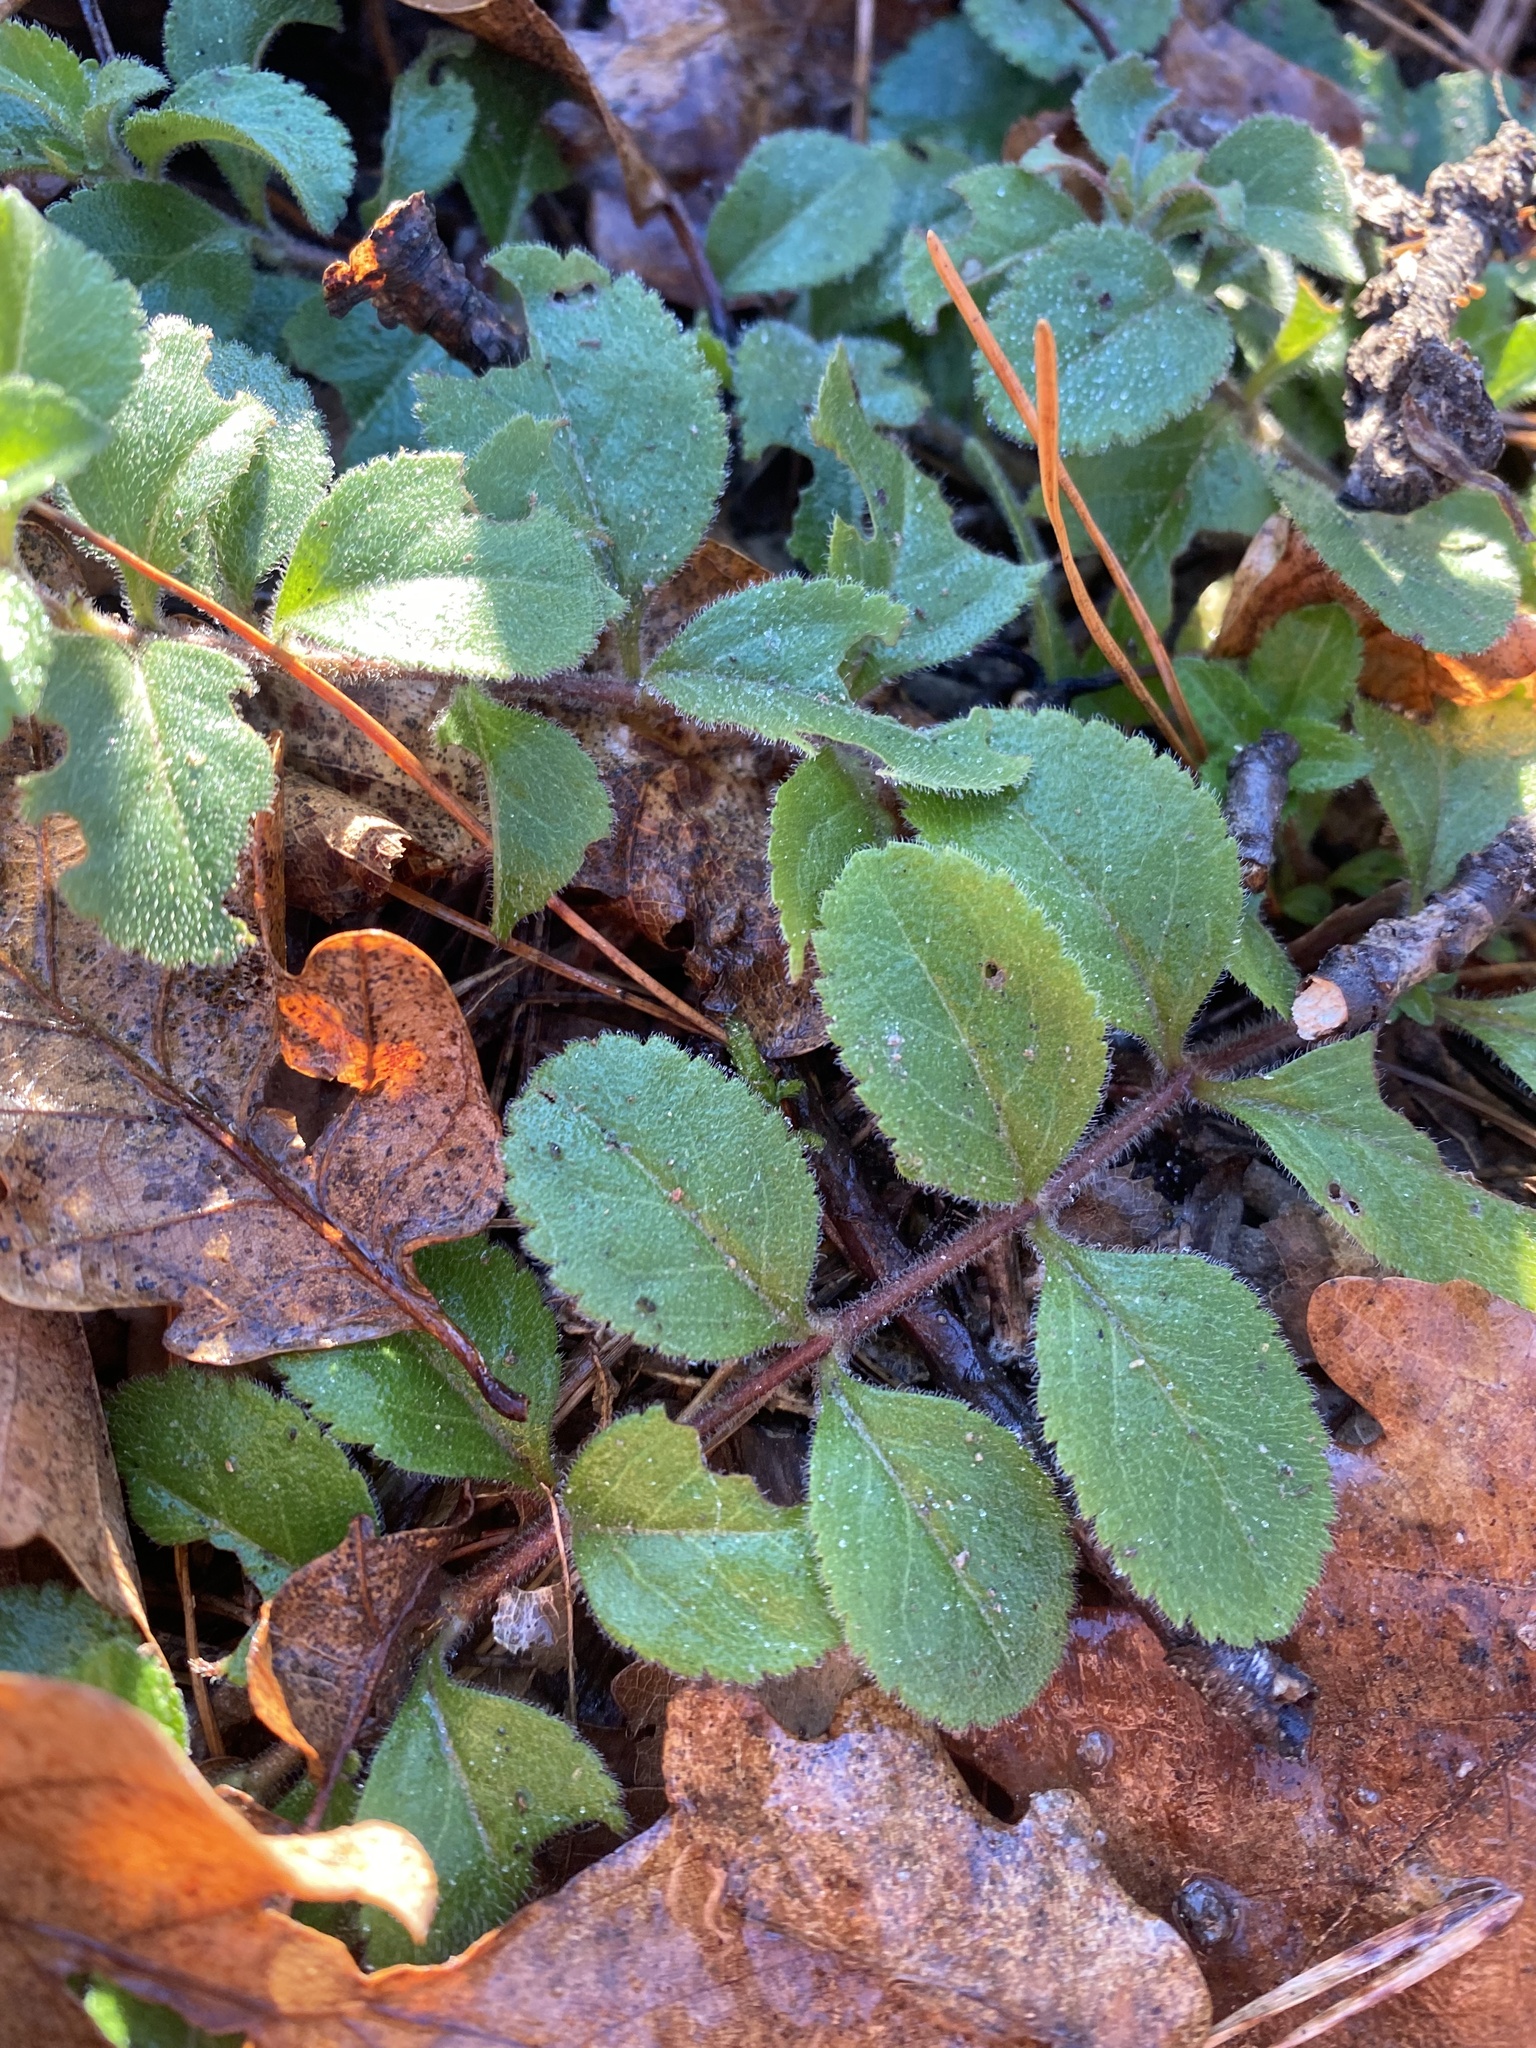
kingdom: Plantae
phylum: Tracheophyta
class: Magnoliopsida
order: Lamiales
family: Plantaginaceae
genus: Veronica
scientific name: Veronica officinalis
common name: Common speedwell
